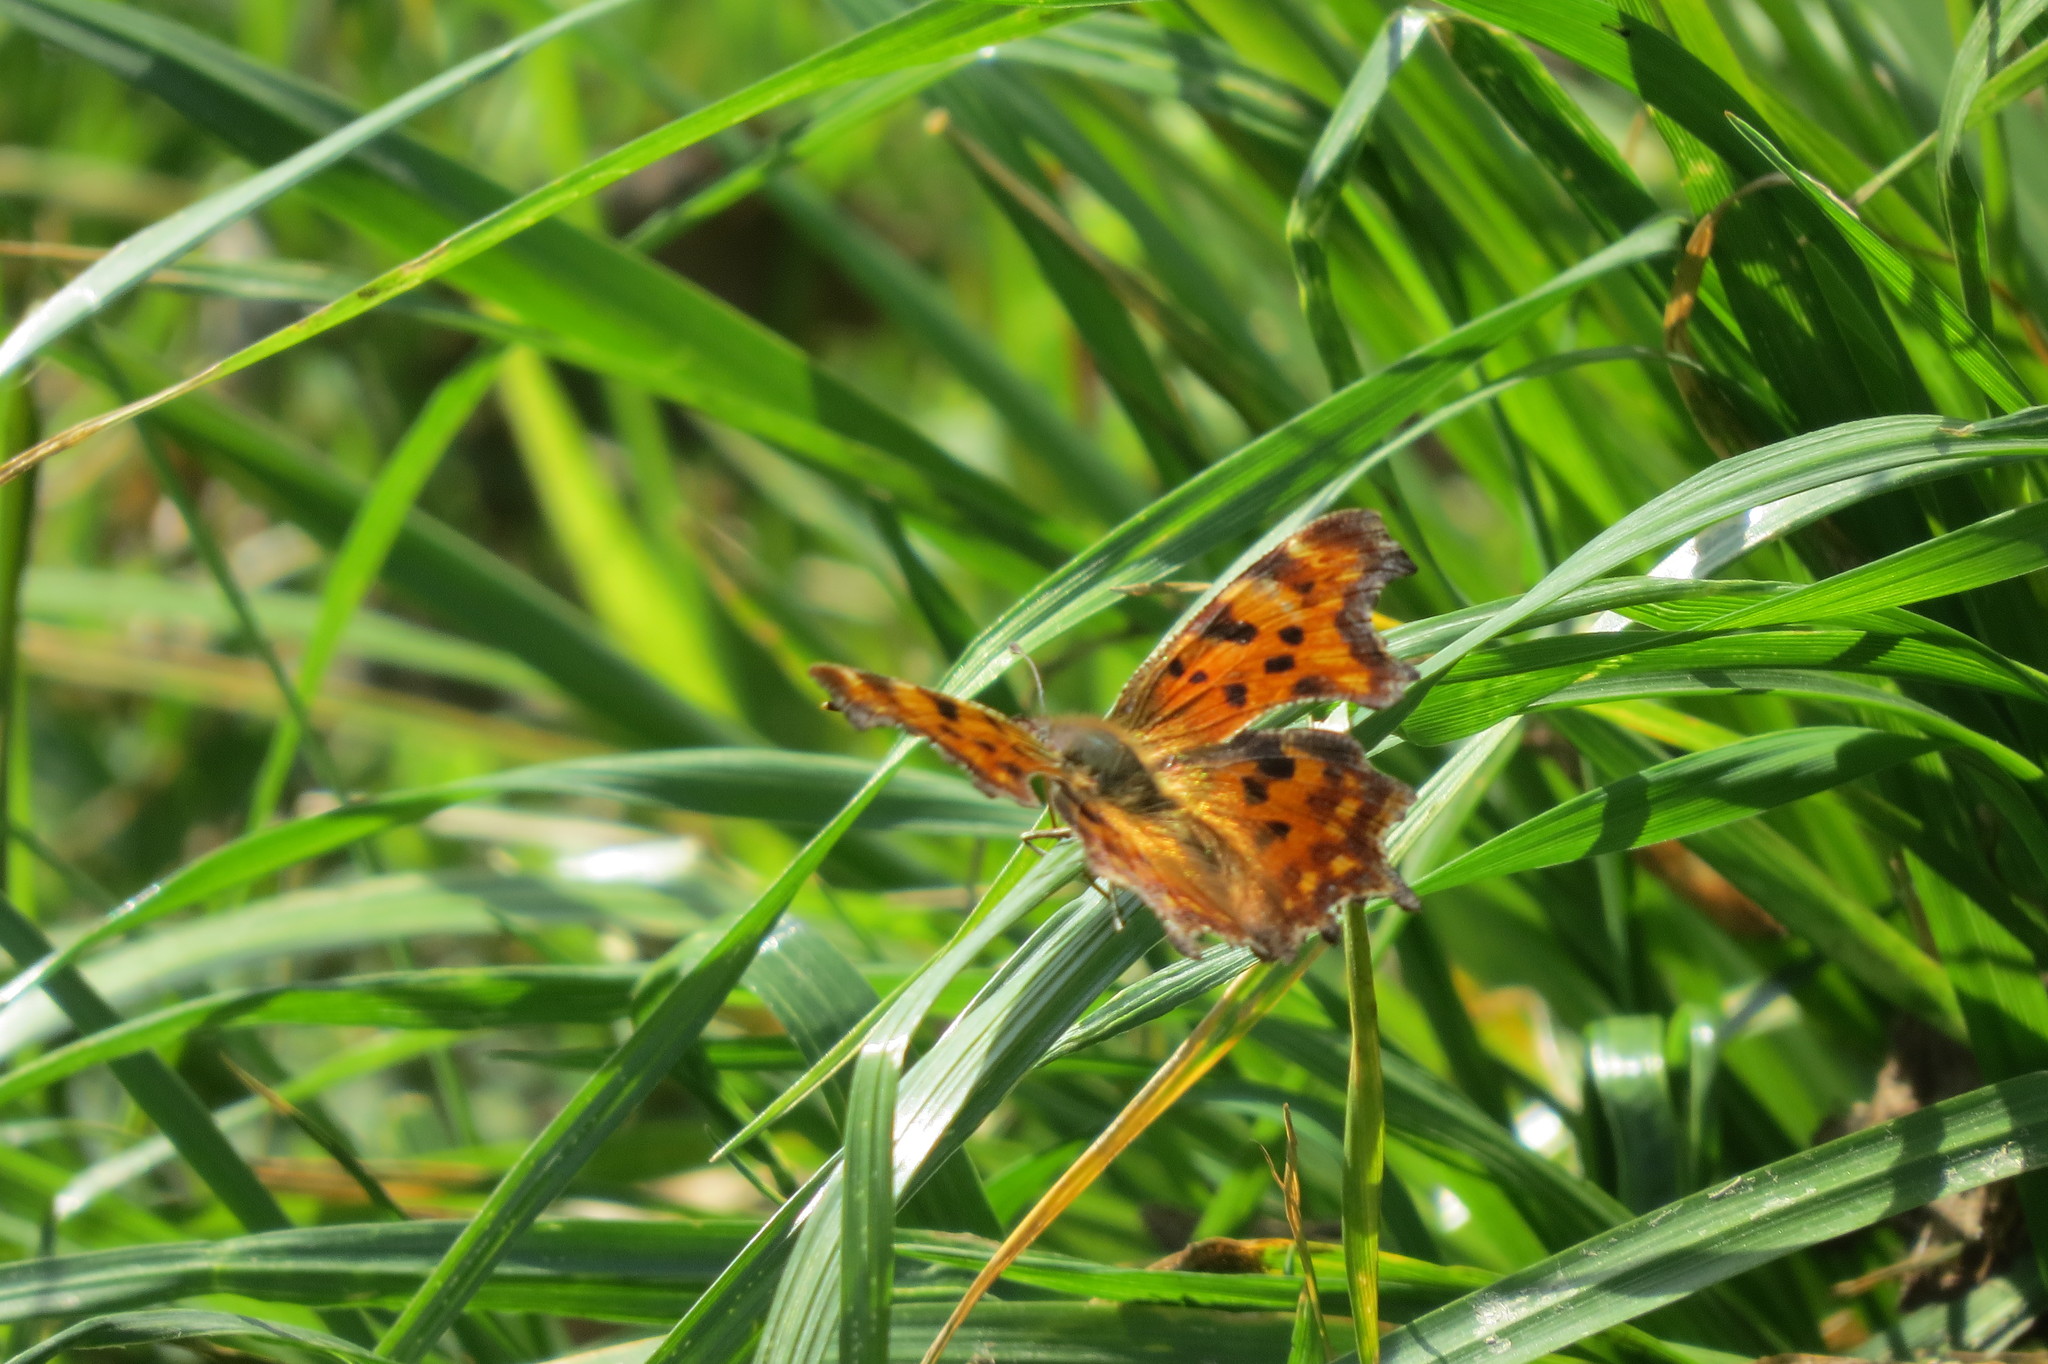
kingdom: Animalia
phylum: Arthropoda
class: Insecta
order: Lepidoptera
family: Nymphalidae
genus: Polygonia
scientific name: Polygonia c-album
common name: Comma
